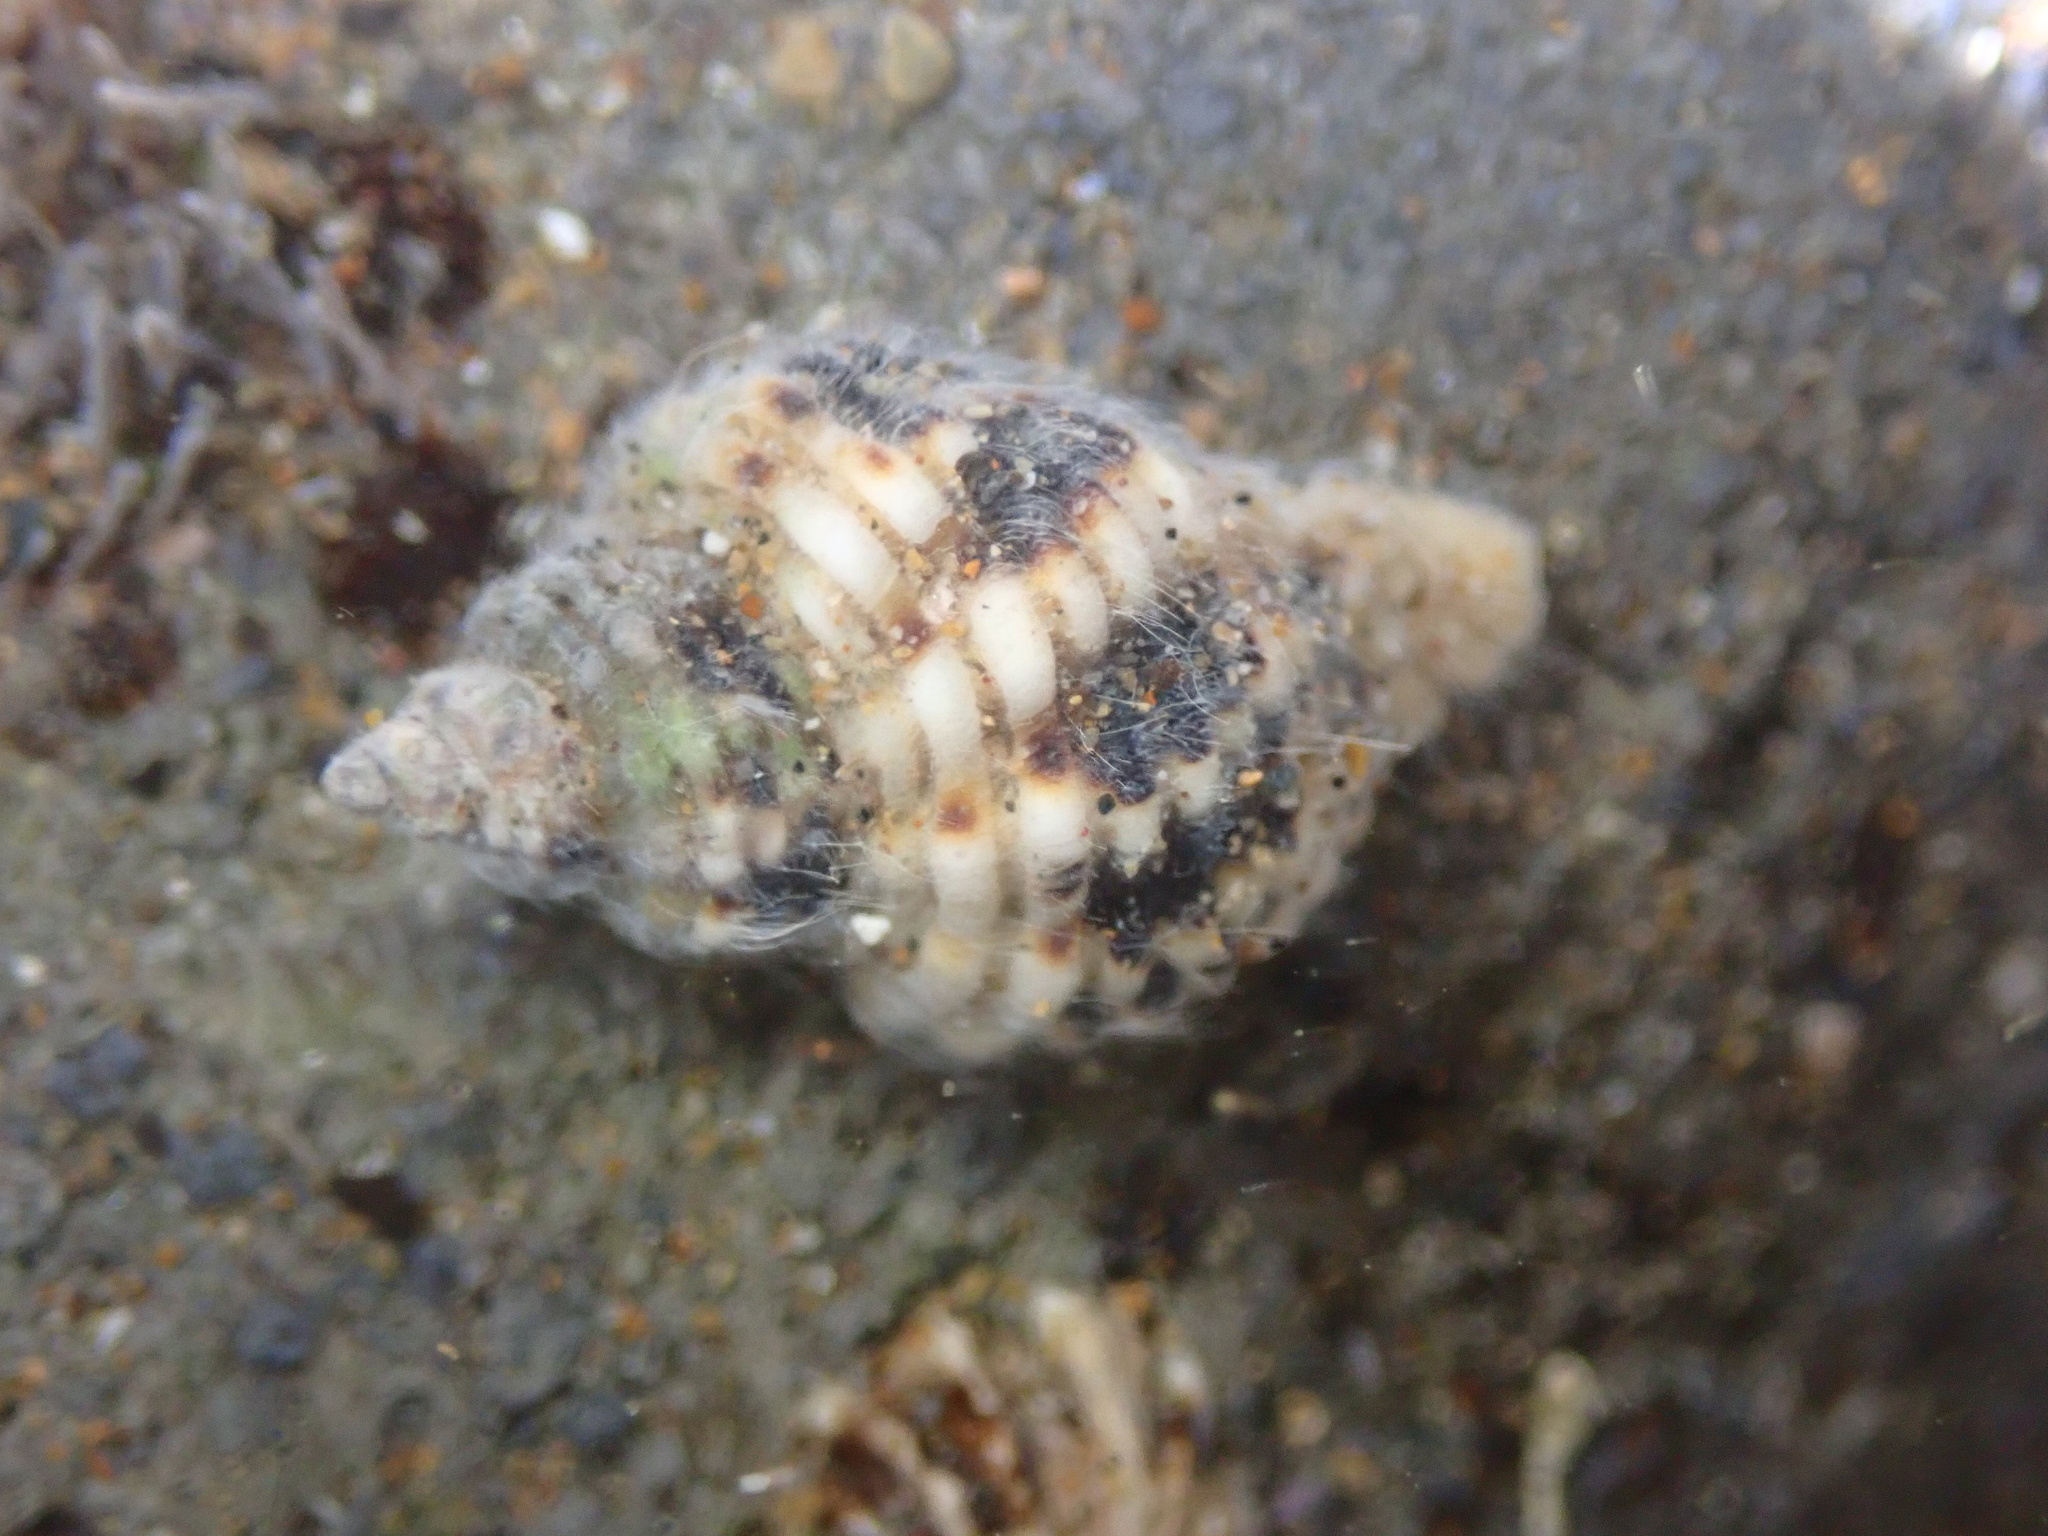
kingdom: Animalia
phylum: Mollusca
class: Gastropoda
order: Neogastropoda
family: Muricidae
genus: Paciocinebrina
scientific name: Paciocinebrina circumtexta
